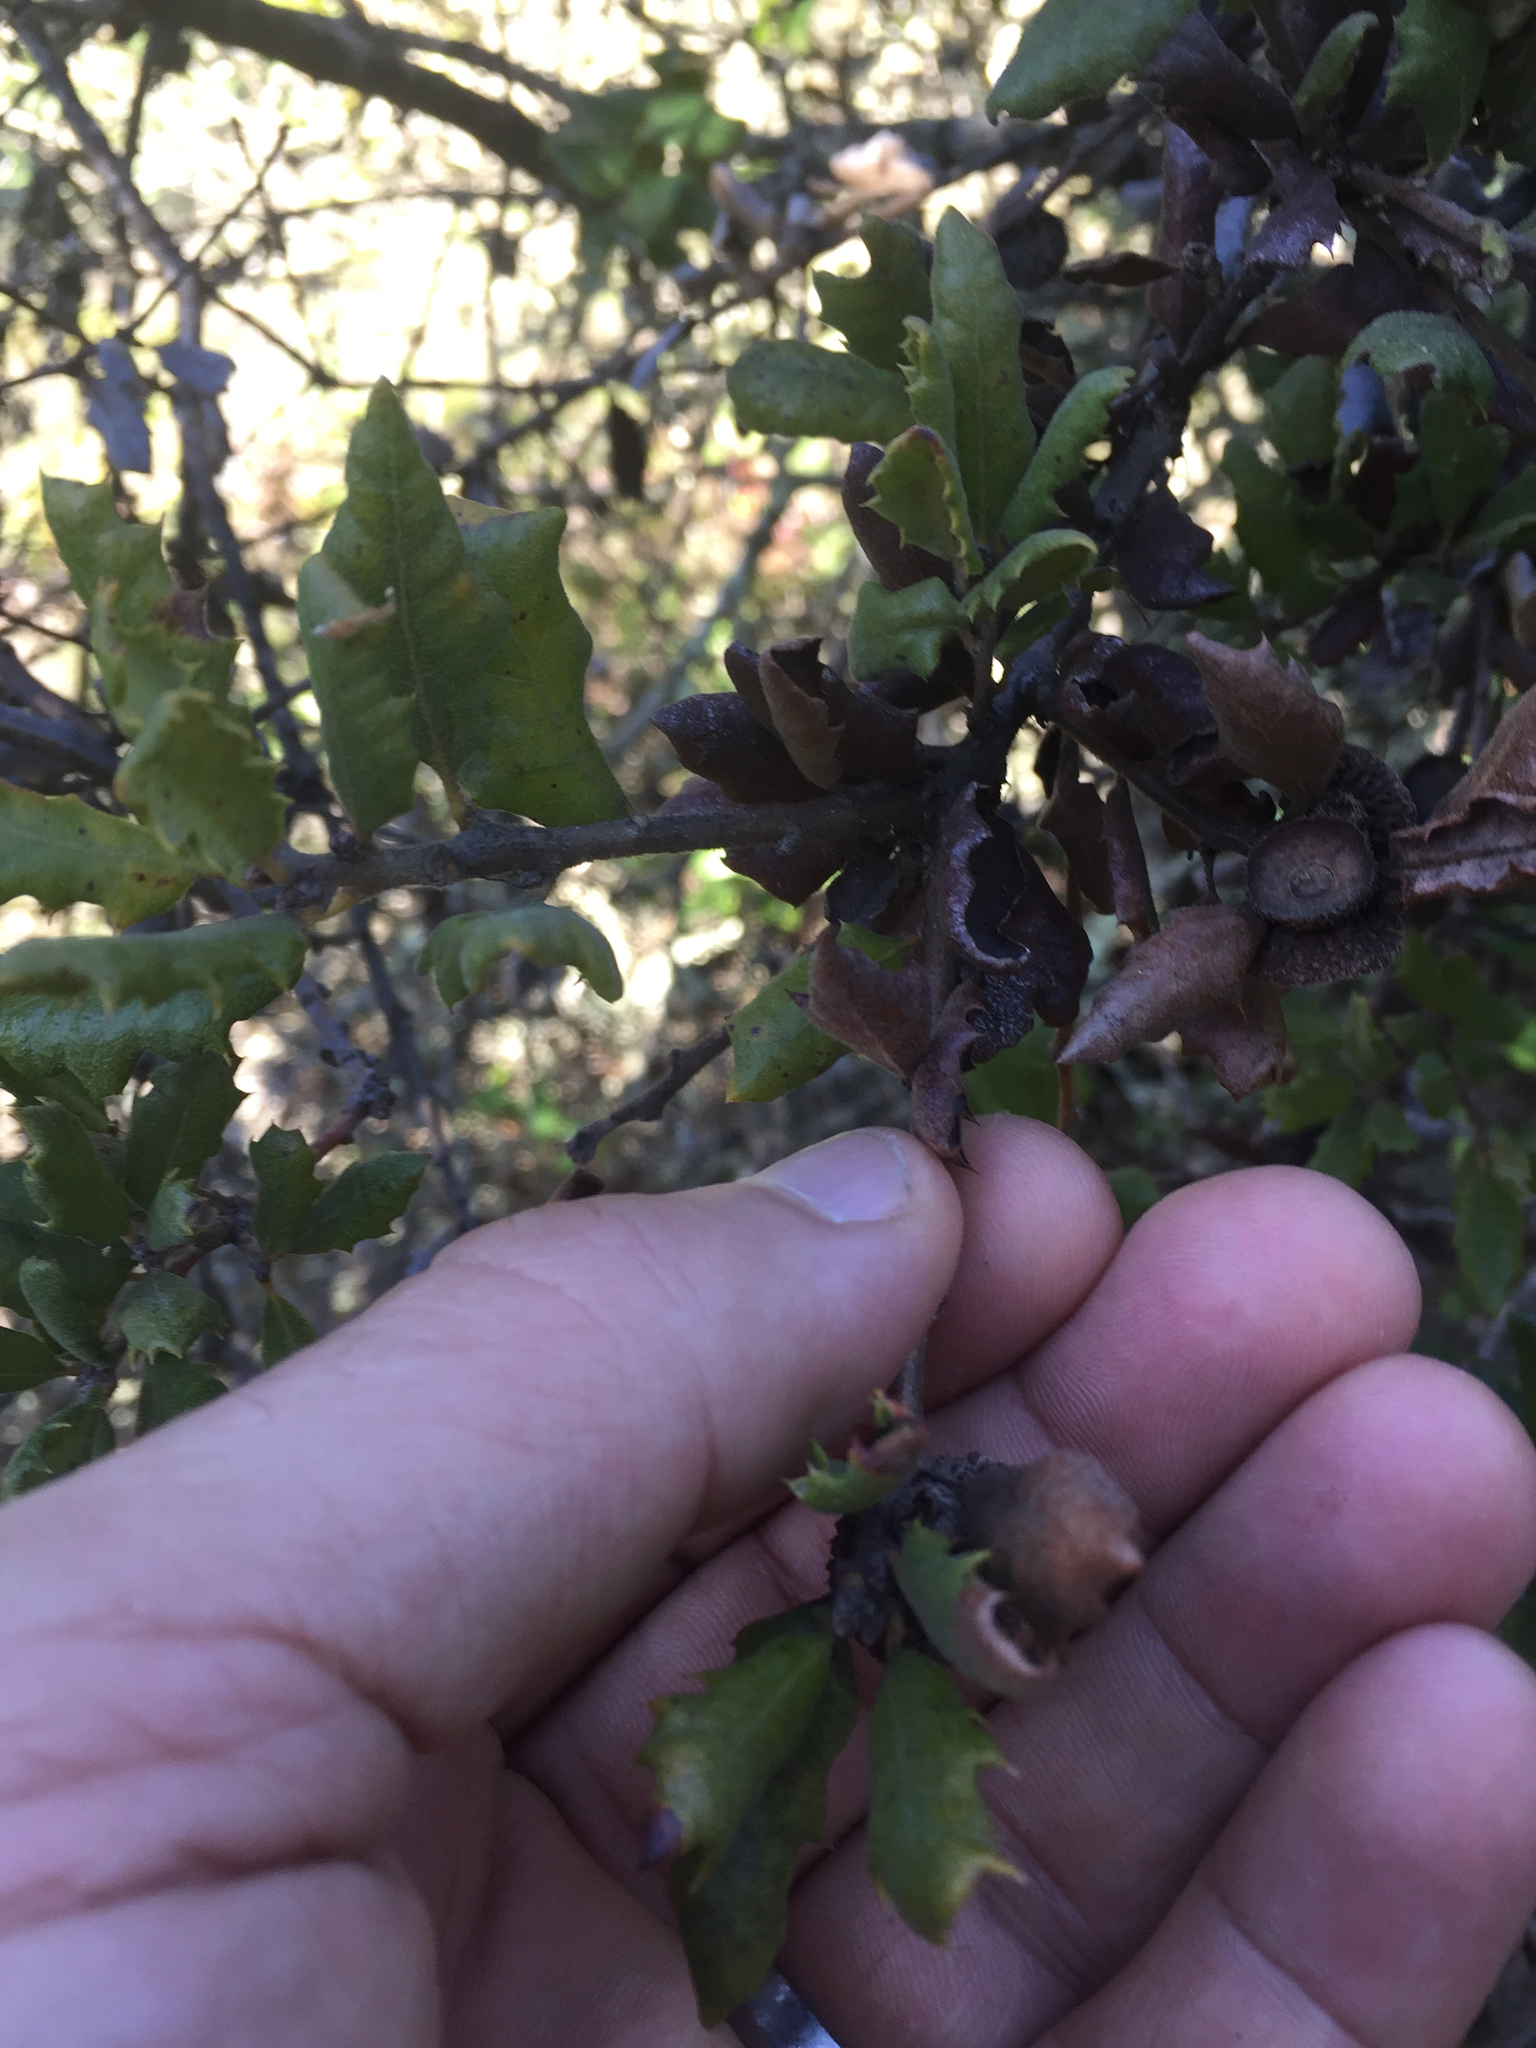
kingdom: Plantae
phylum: Tracheophyta
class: Magnoliopsida
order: Fagales
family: Fagaceae
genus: Quercus
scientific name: Quercus durata
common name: Leather oak
